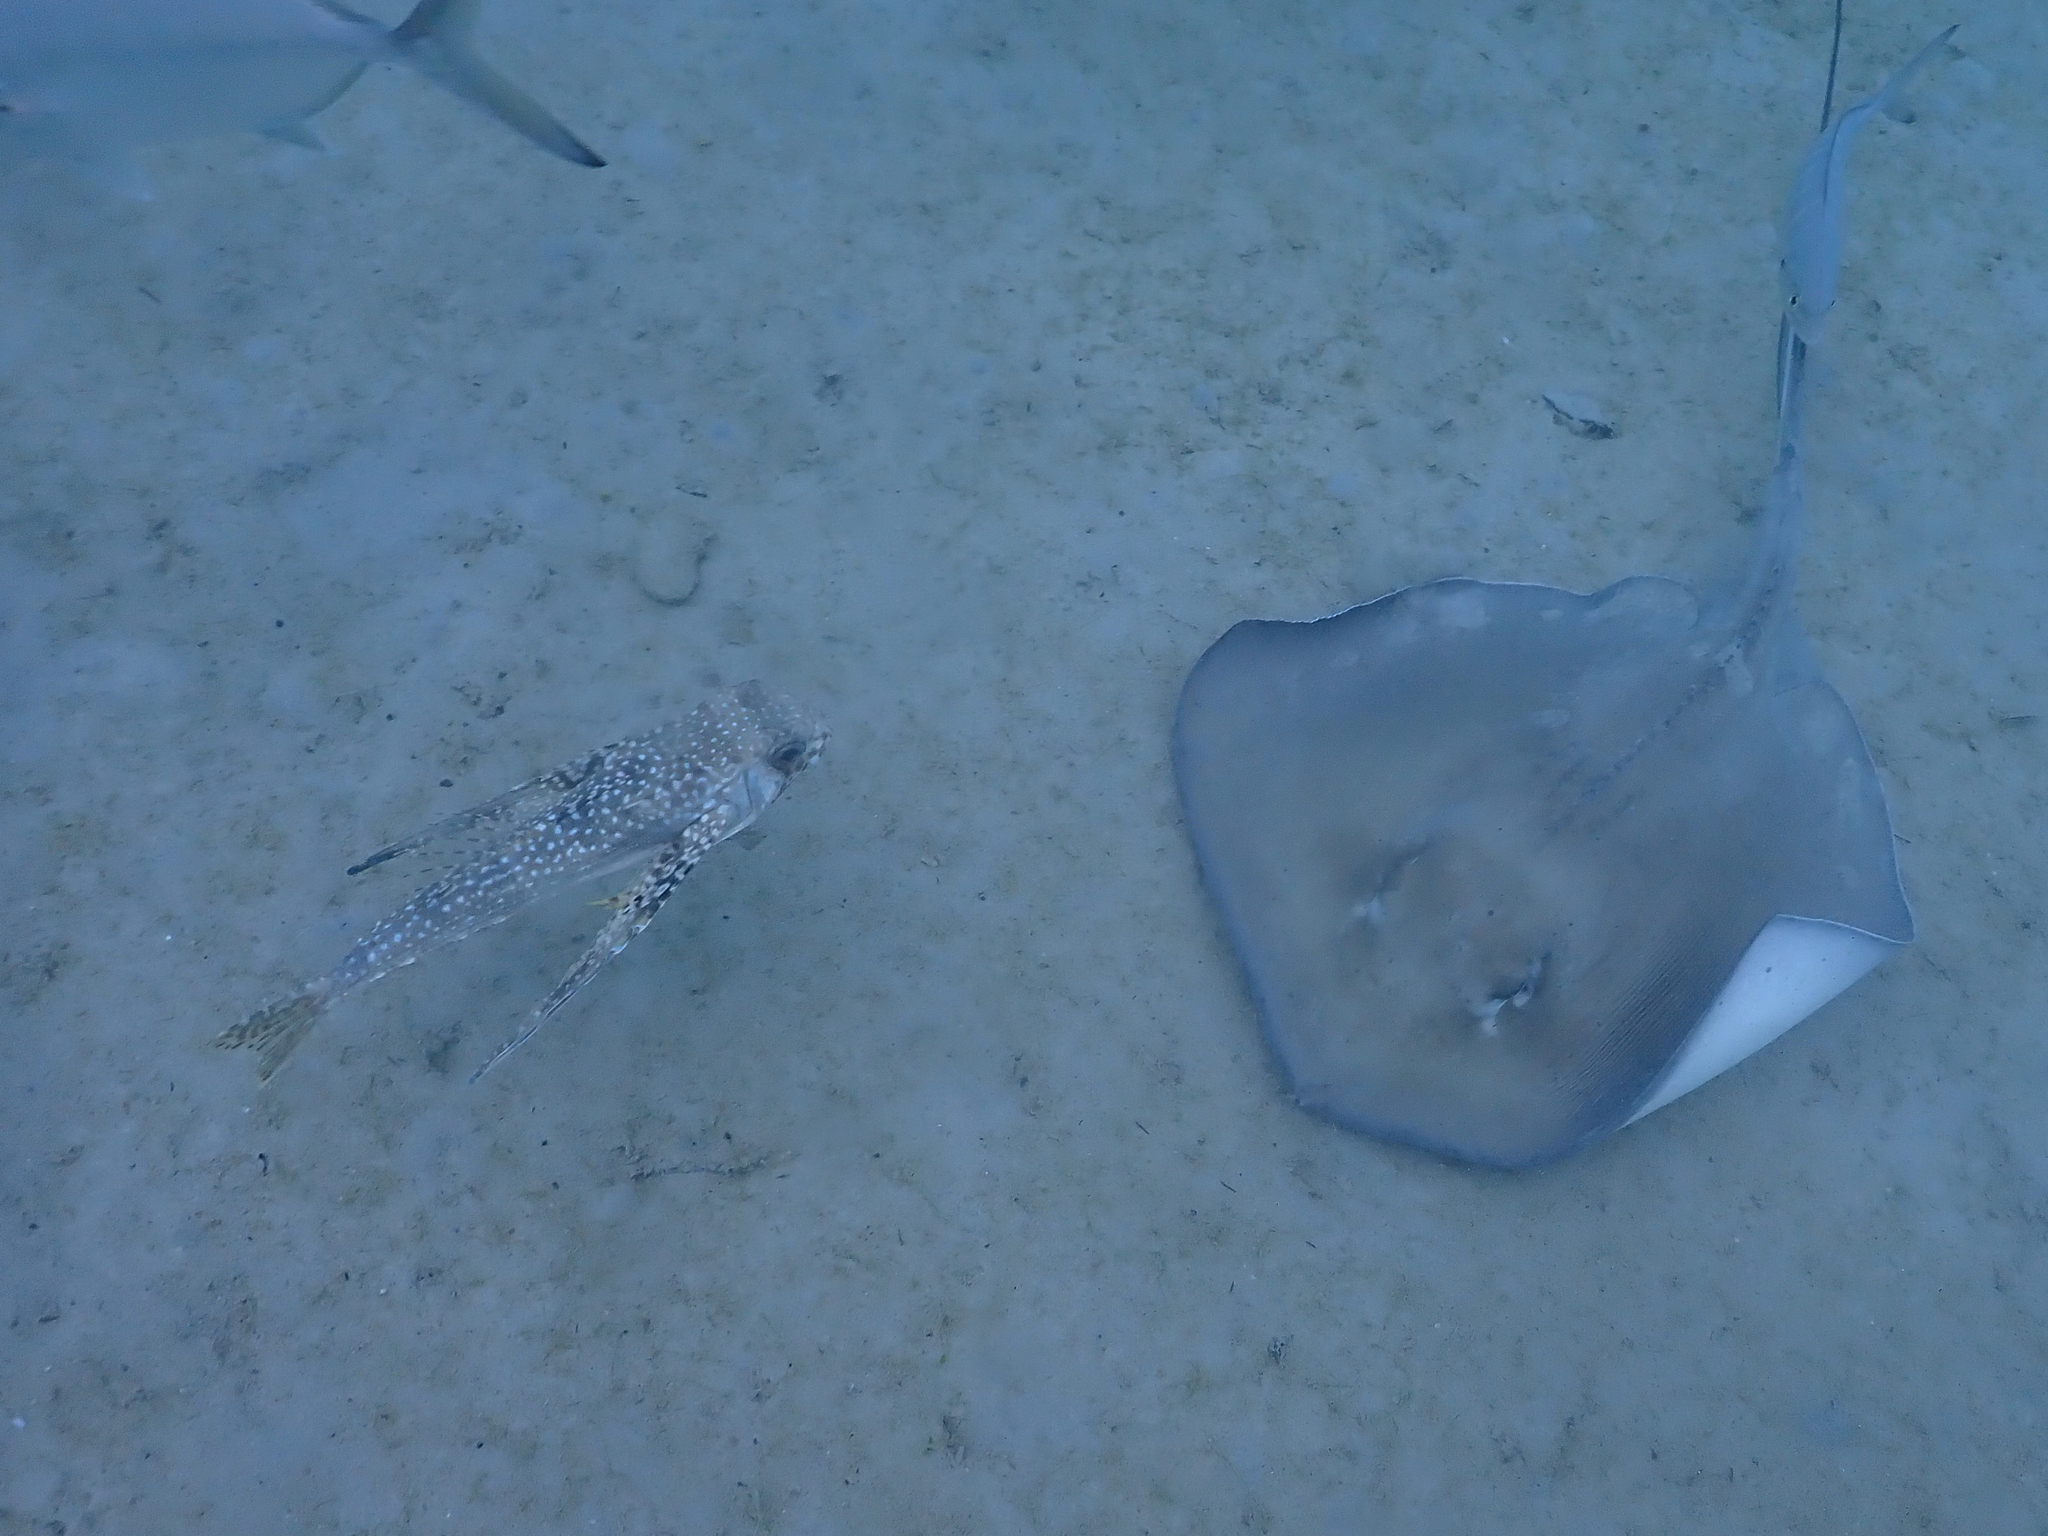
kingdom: Animalia
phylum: Chordata
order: Scorpaeniformes
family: Dactylopteridae
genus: Dactylopterus
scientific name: Dactylopterus volitans
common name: Flying gurnard
